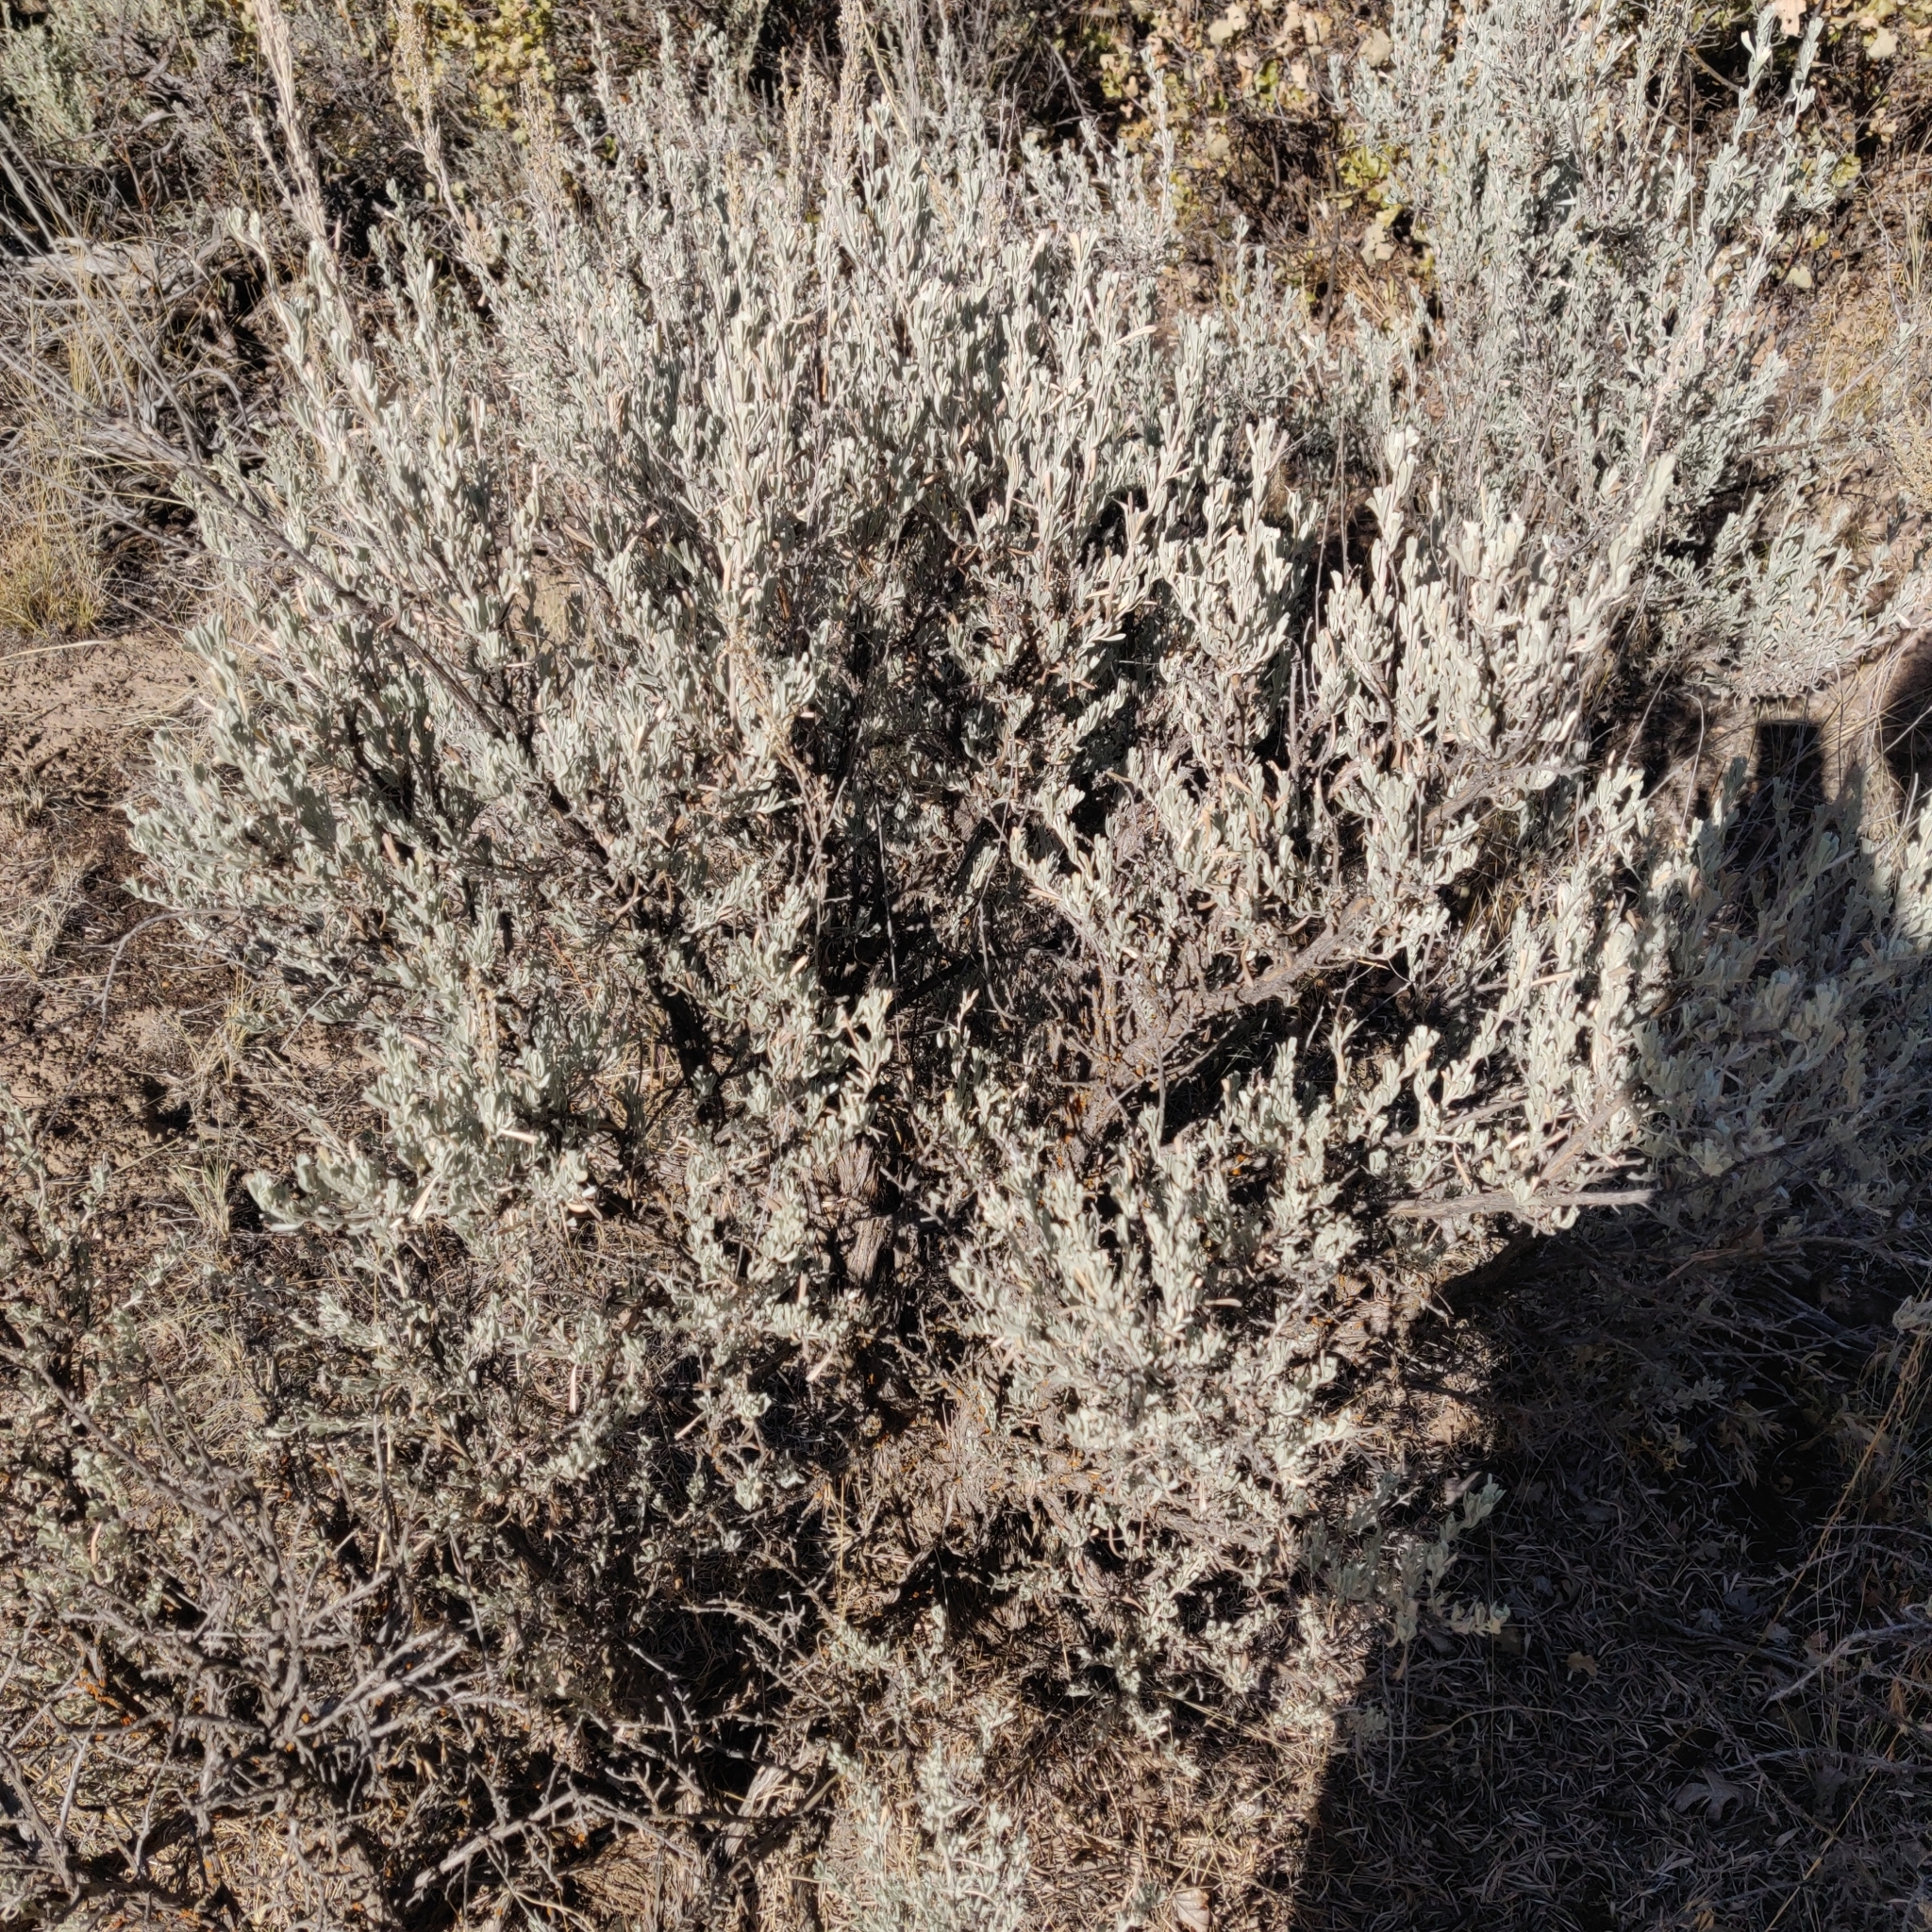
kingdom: Plantae
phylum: Tracheophyta
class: Magnoliopsida
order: Asterales
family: Asteraceae
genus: Artemisia
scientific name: Artemisia tridentata
